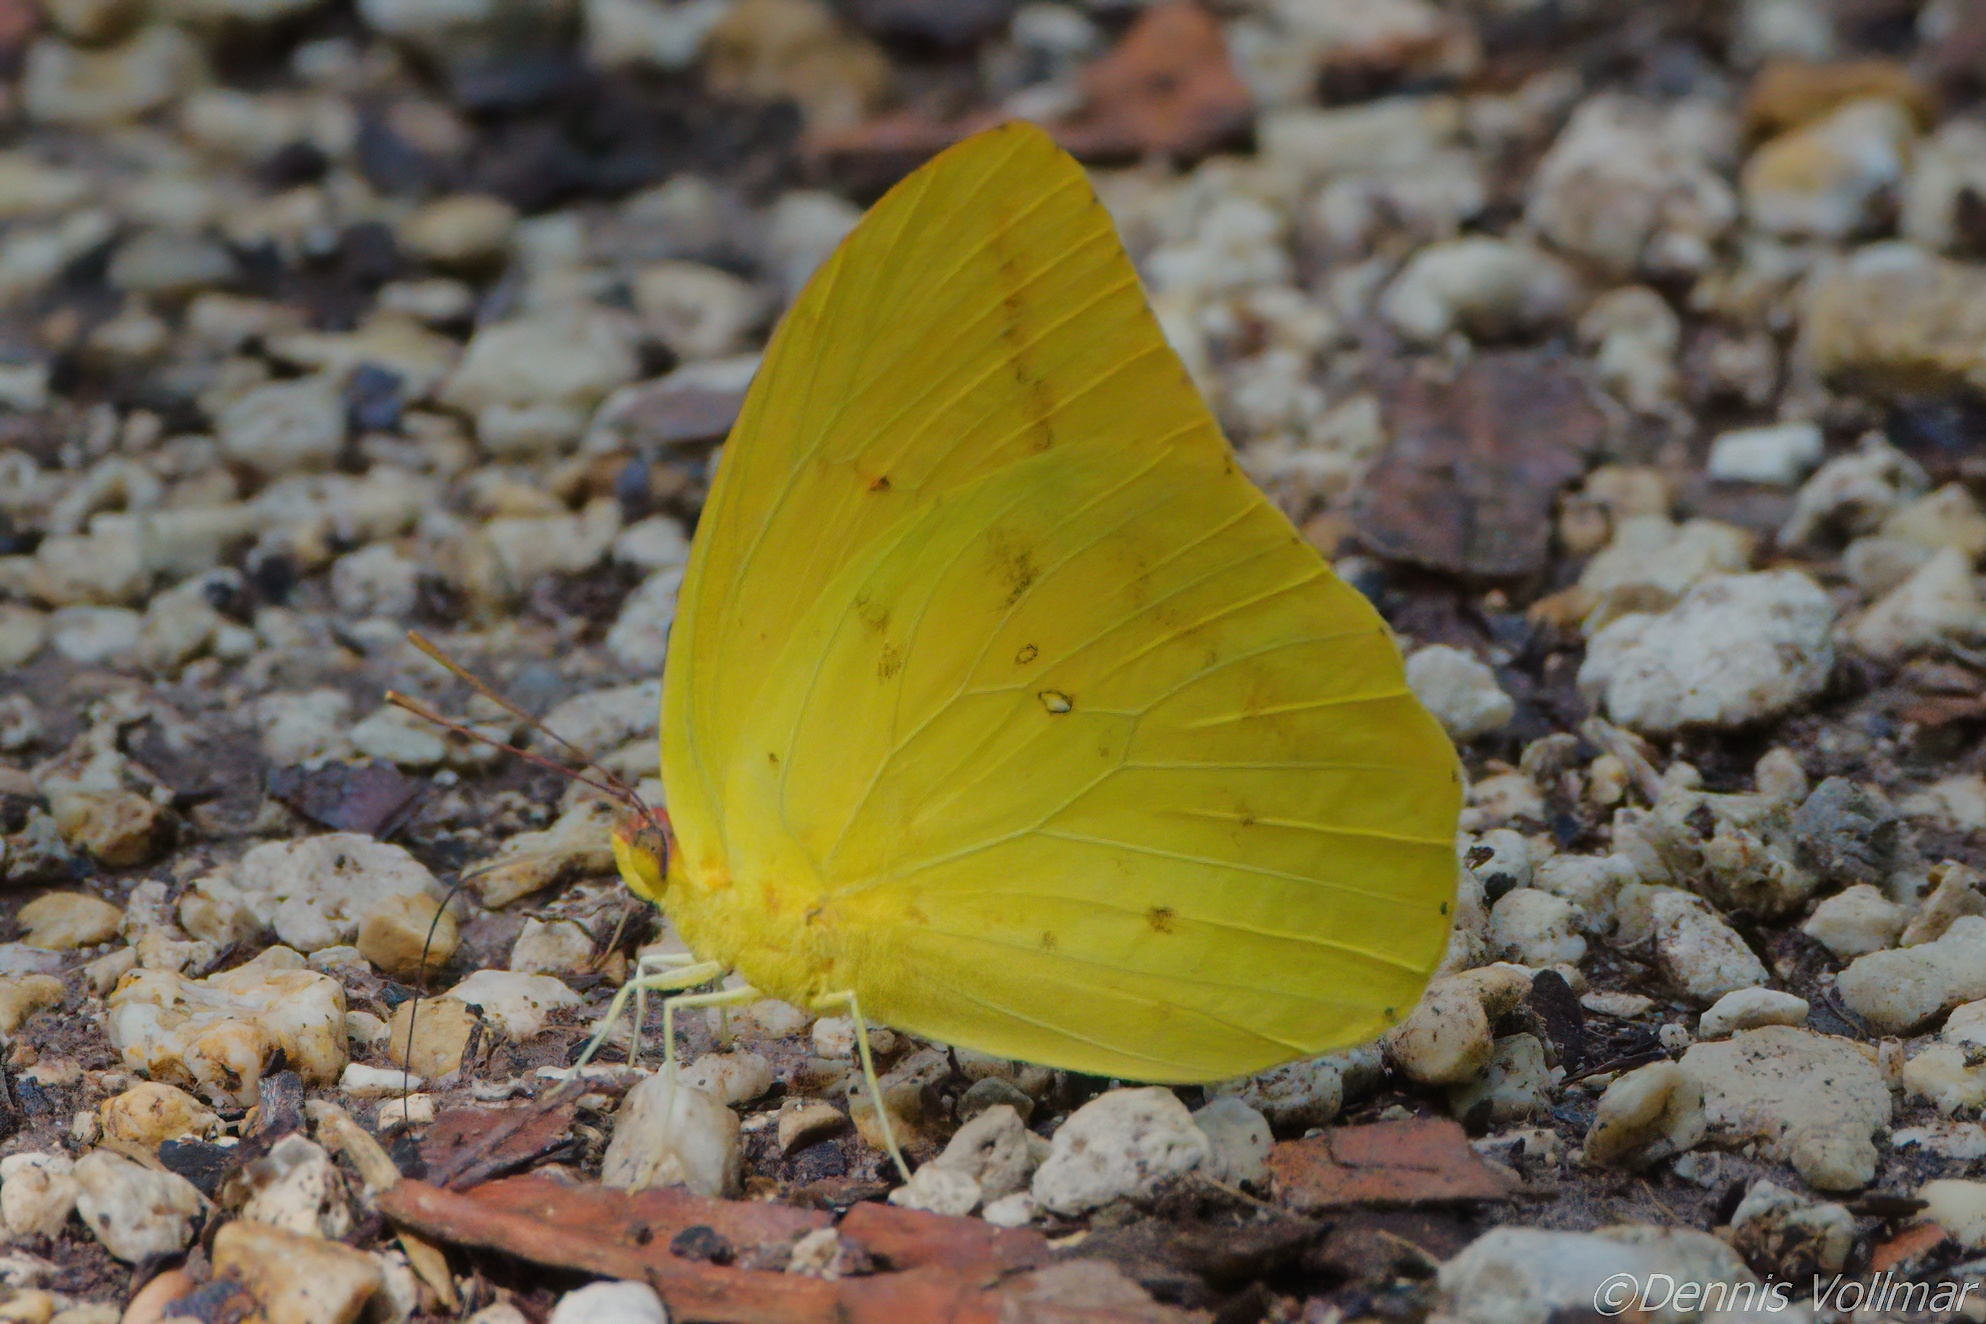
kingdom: Animalia
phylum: Arthropoda
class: Insecta
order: Lepidoptera
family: Pieridae
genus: Phoebis
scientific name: Phoebis agarithe
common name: Large orange sulphur
